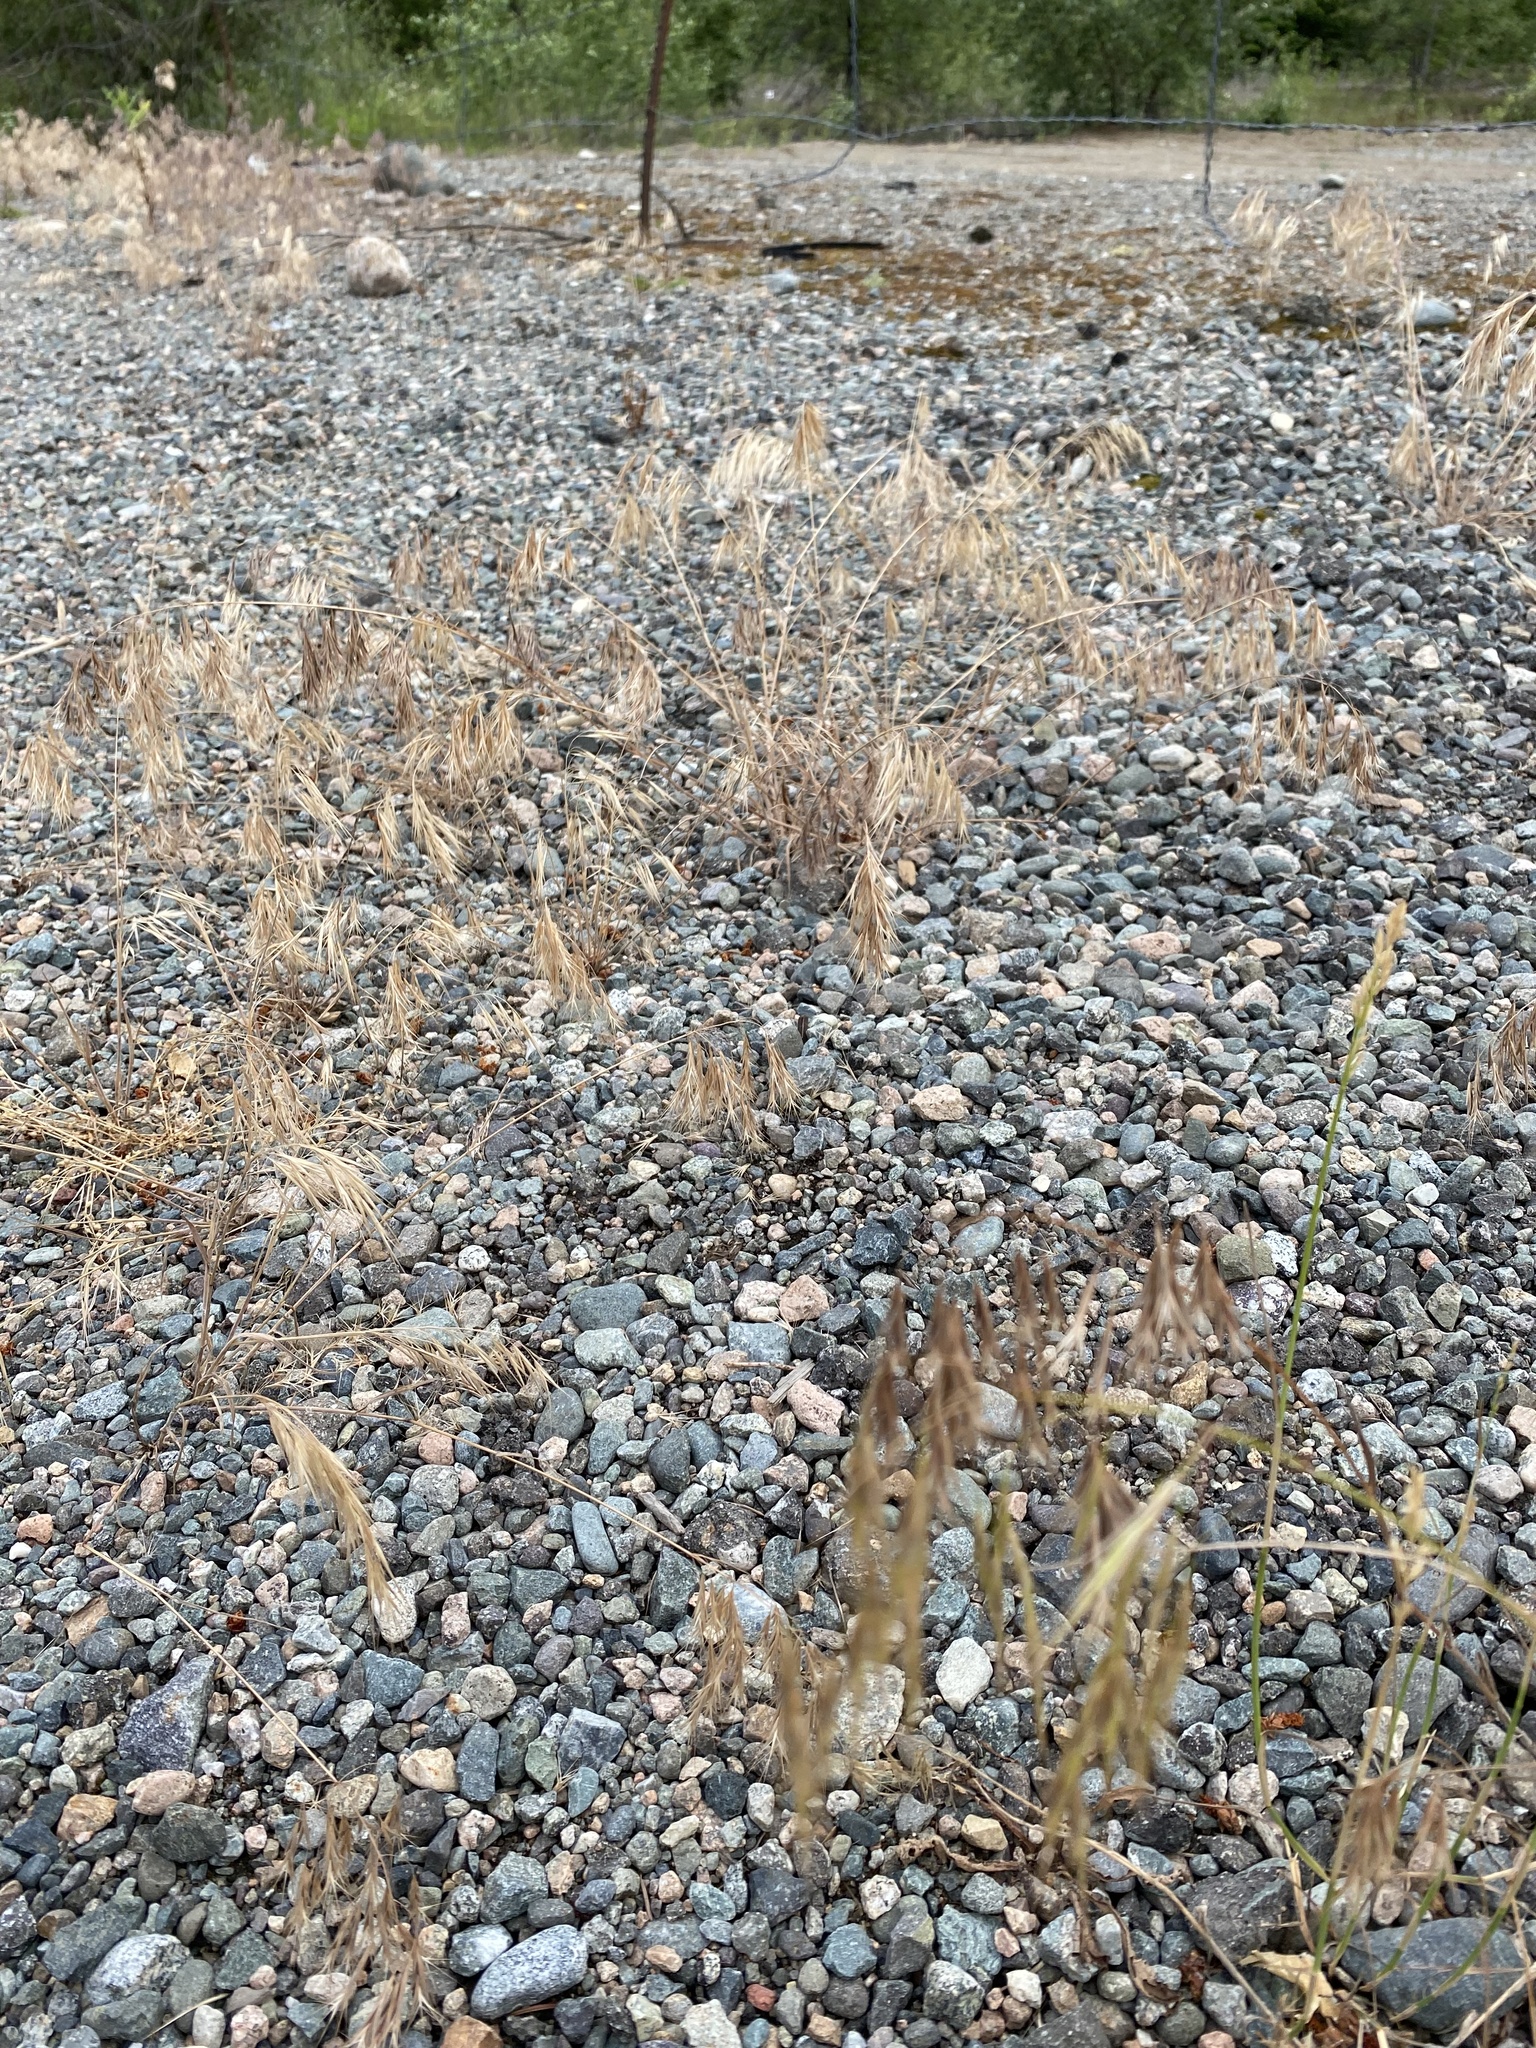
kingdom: Plantae
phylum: Tracheophyta
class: Liliopsida
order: Poales
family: Poaceae
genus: Bromus
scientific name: Bromus tectorum
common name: Cheatgrass
